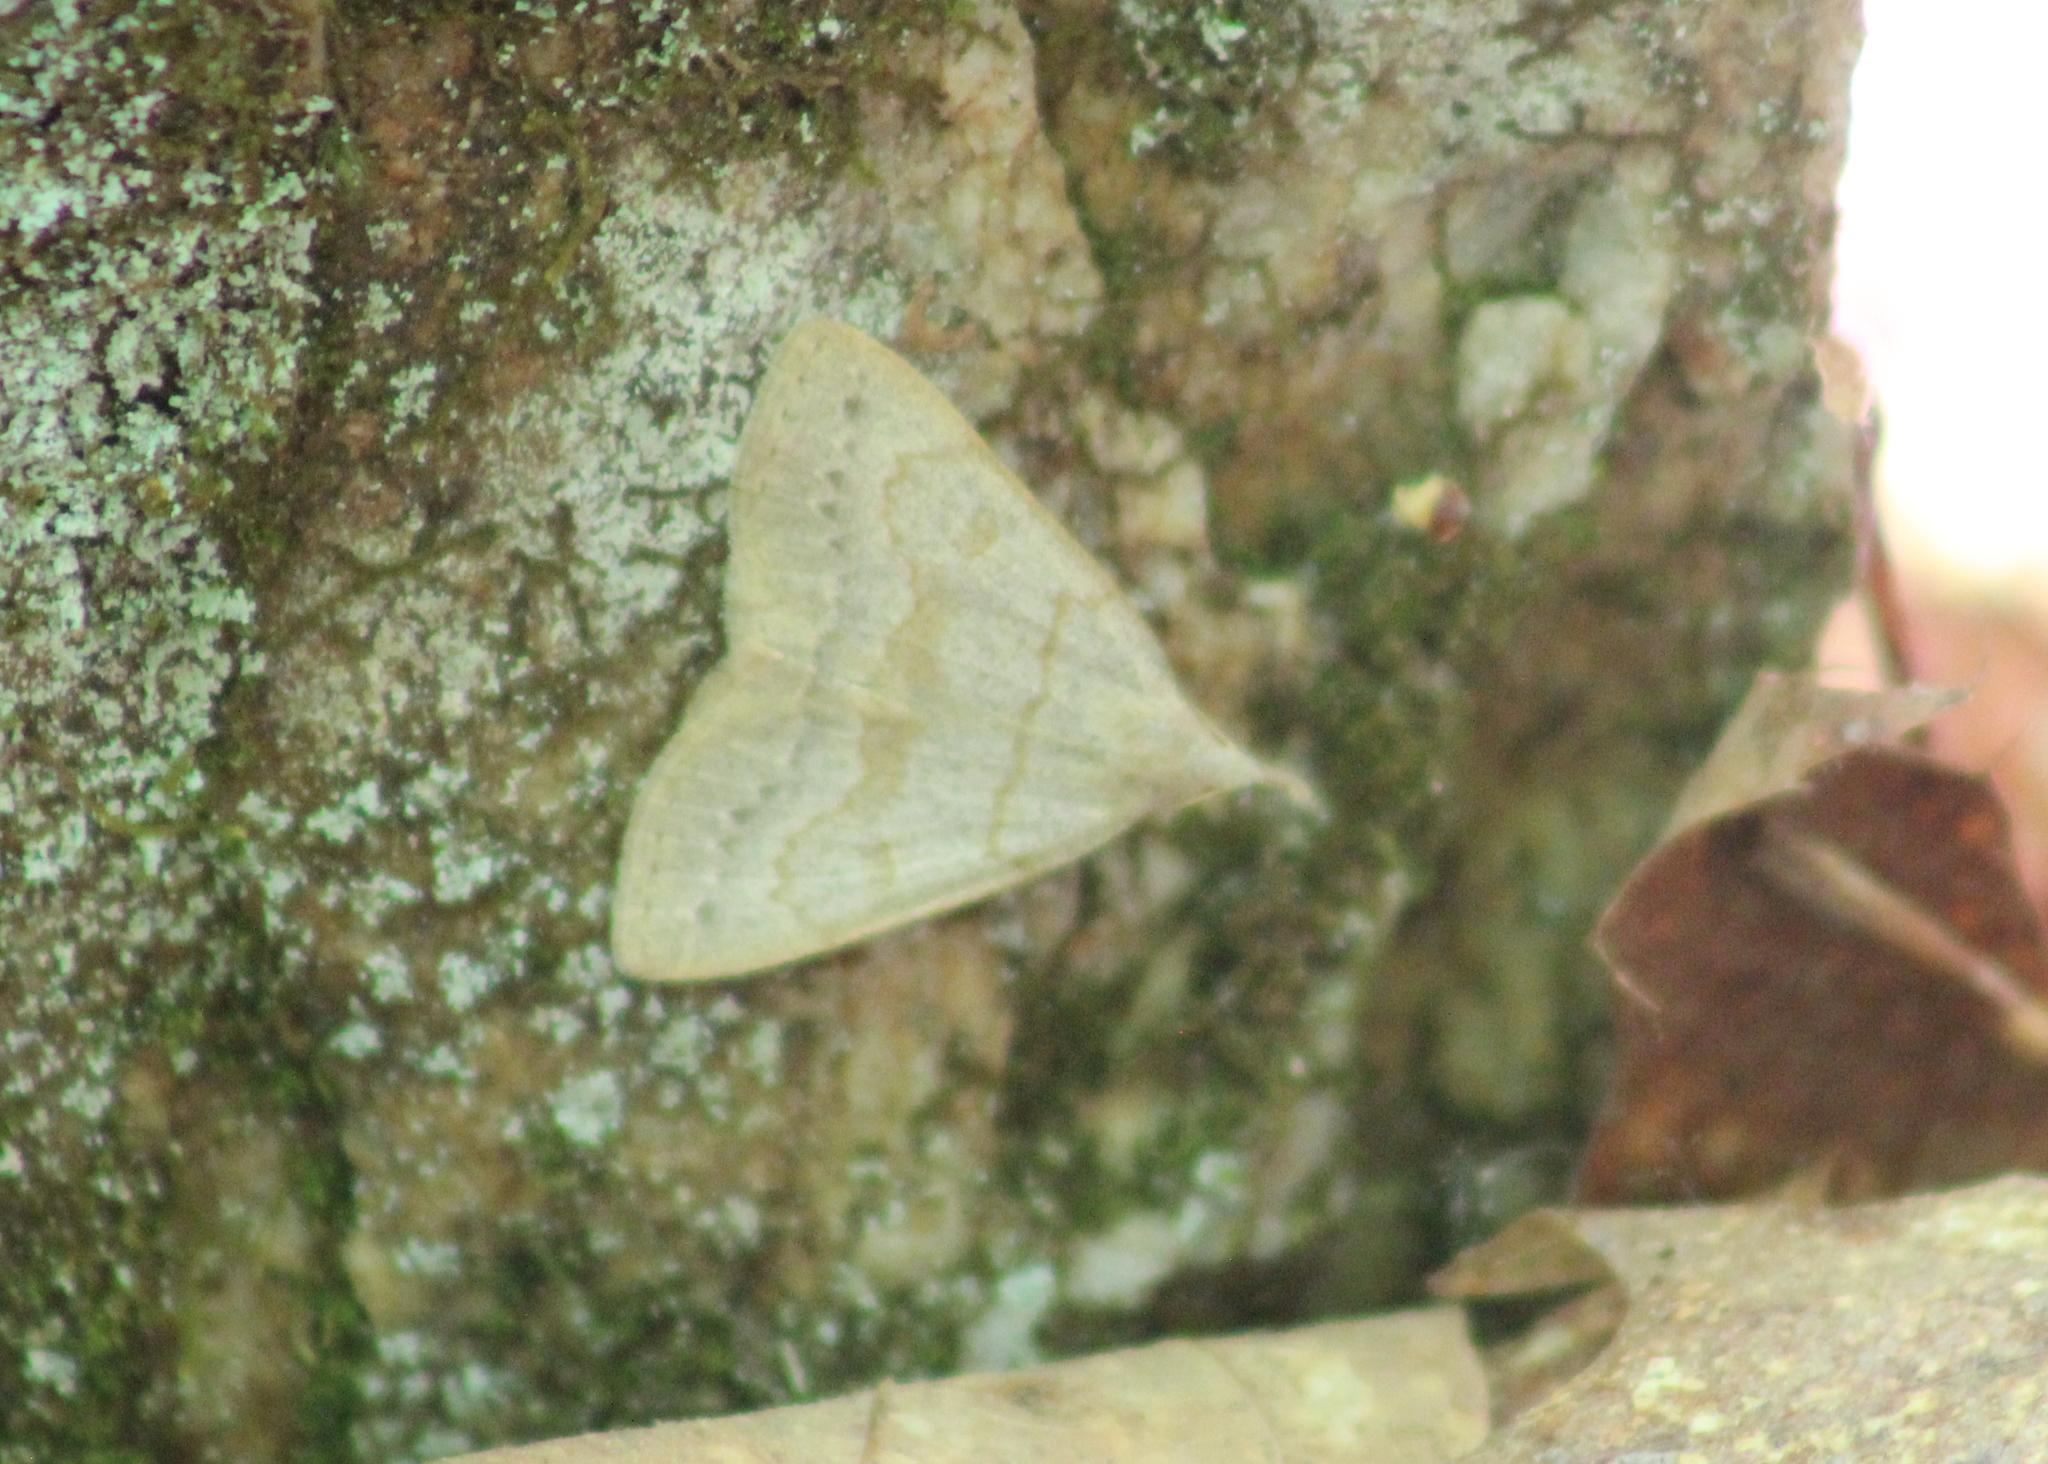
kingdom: Animalia
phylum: Arthropoda
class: Insecta
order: Lepidoptera
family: Erebidae
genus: Macrochilo
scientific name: Macrochilo morbidalis
